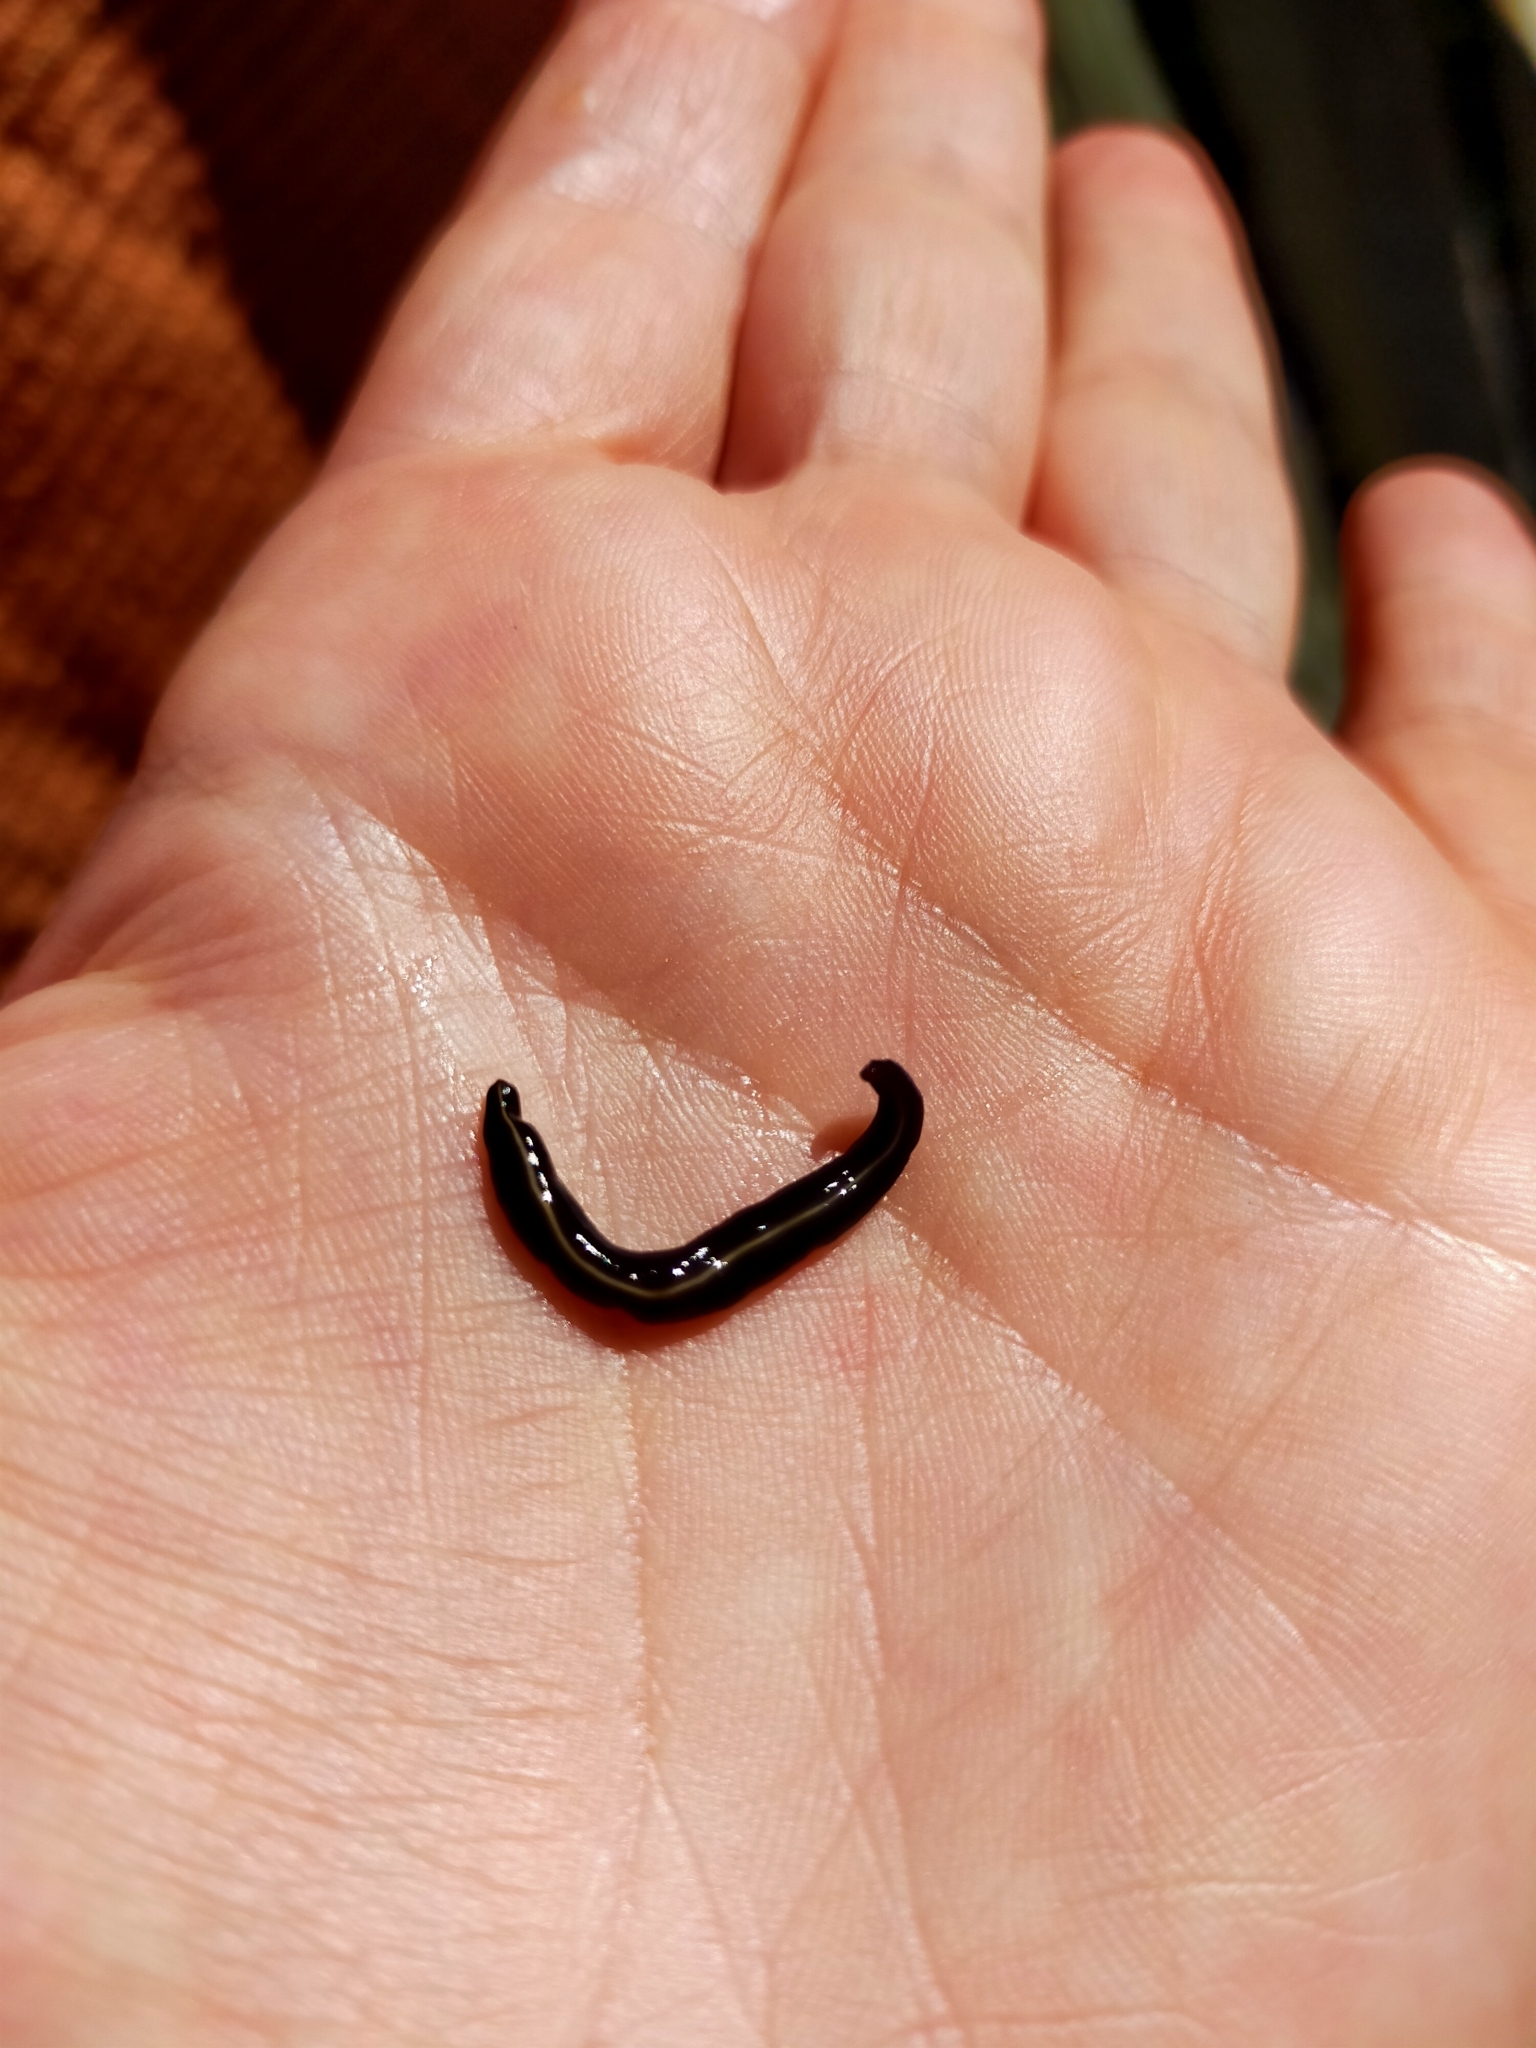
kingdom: Animalia
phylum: Platyhelminthes
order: Tricladida
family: Geoplanidae
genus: Caenoplana
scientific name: Caenoplana coerulea
